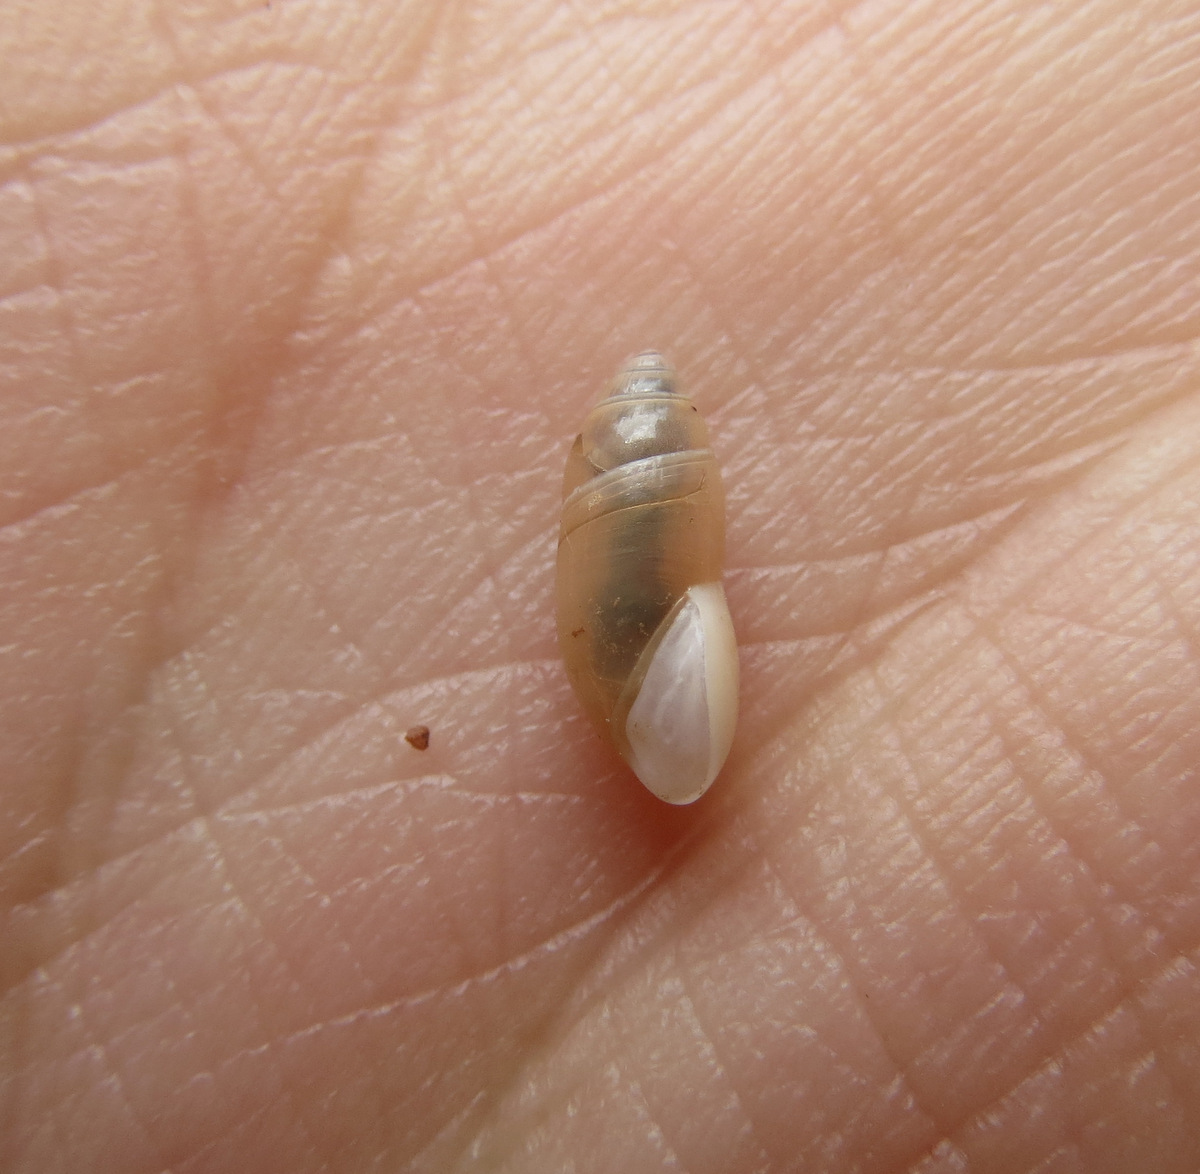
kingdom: Animalia
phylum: Mollusca
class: Gastropoda
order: Stylommatophora
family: Ferussaciidae
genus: Ferussacia
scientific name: Ferussacia folliculum
